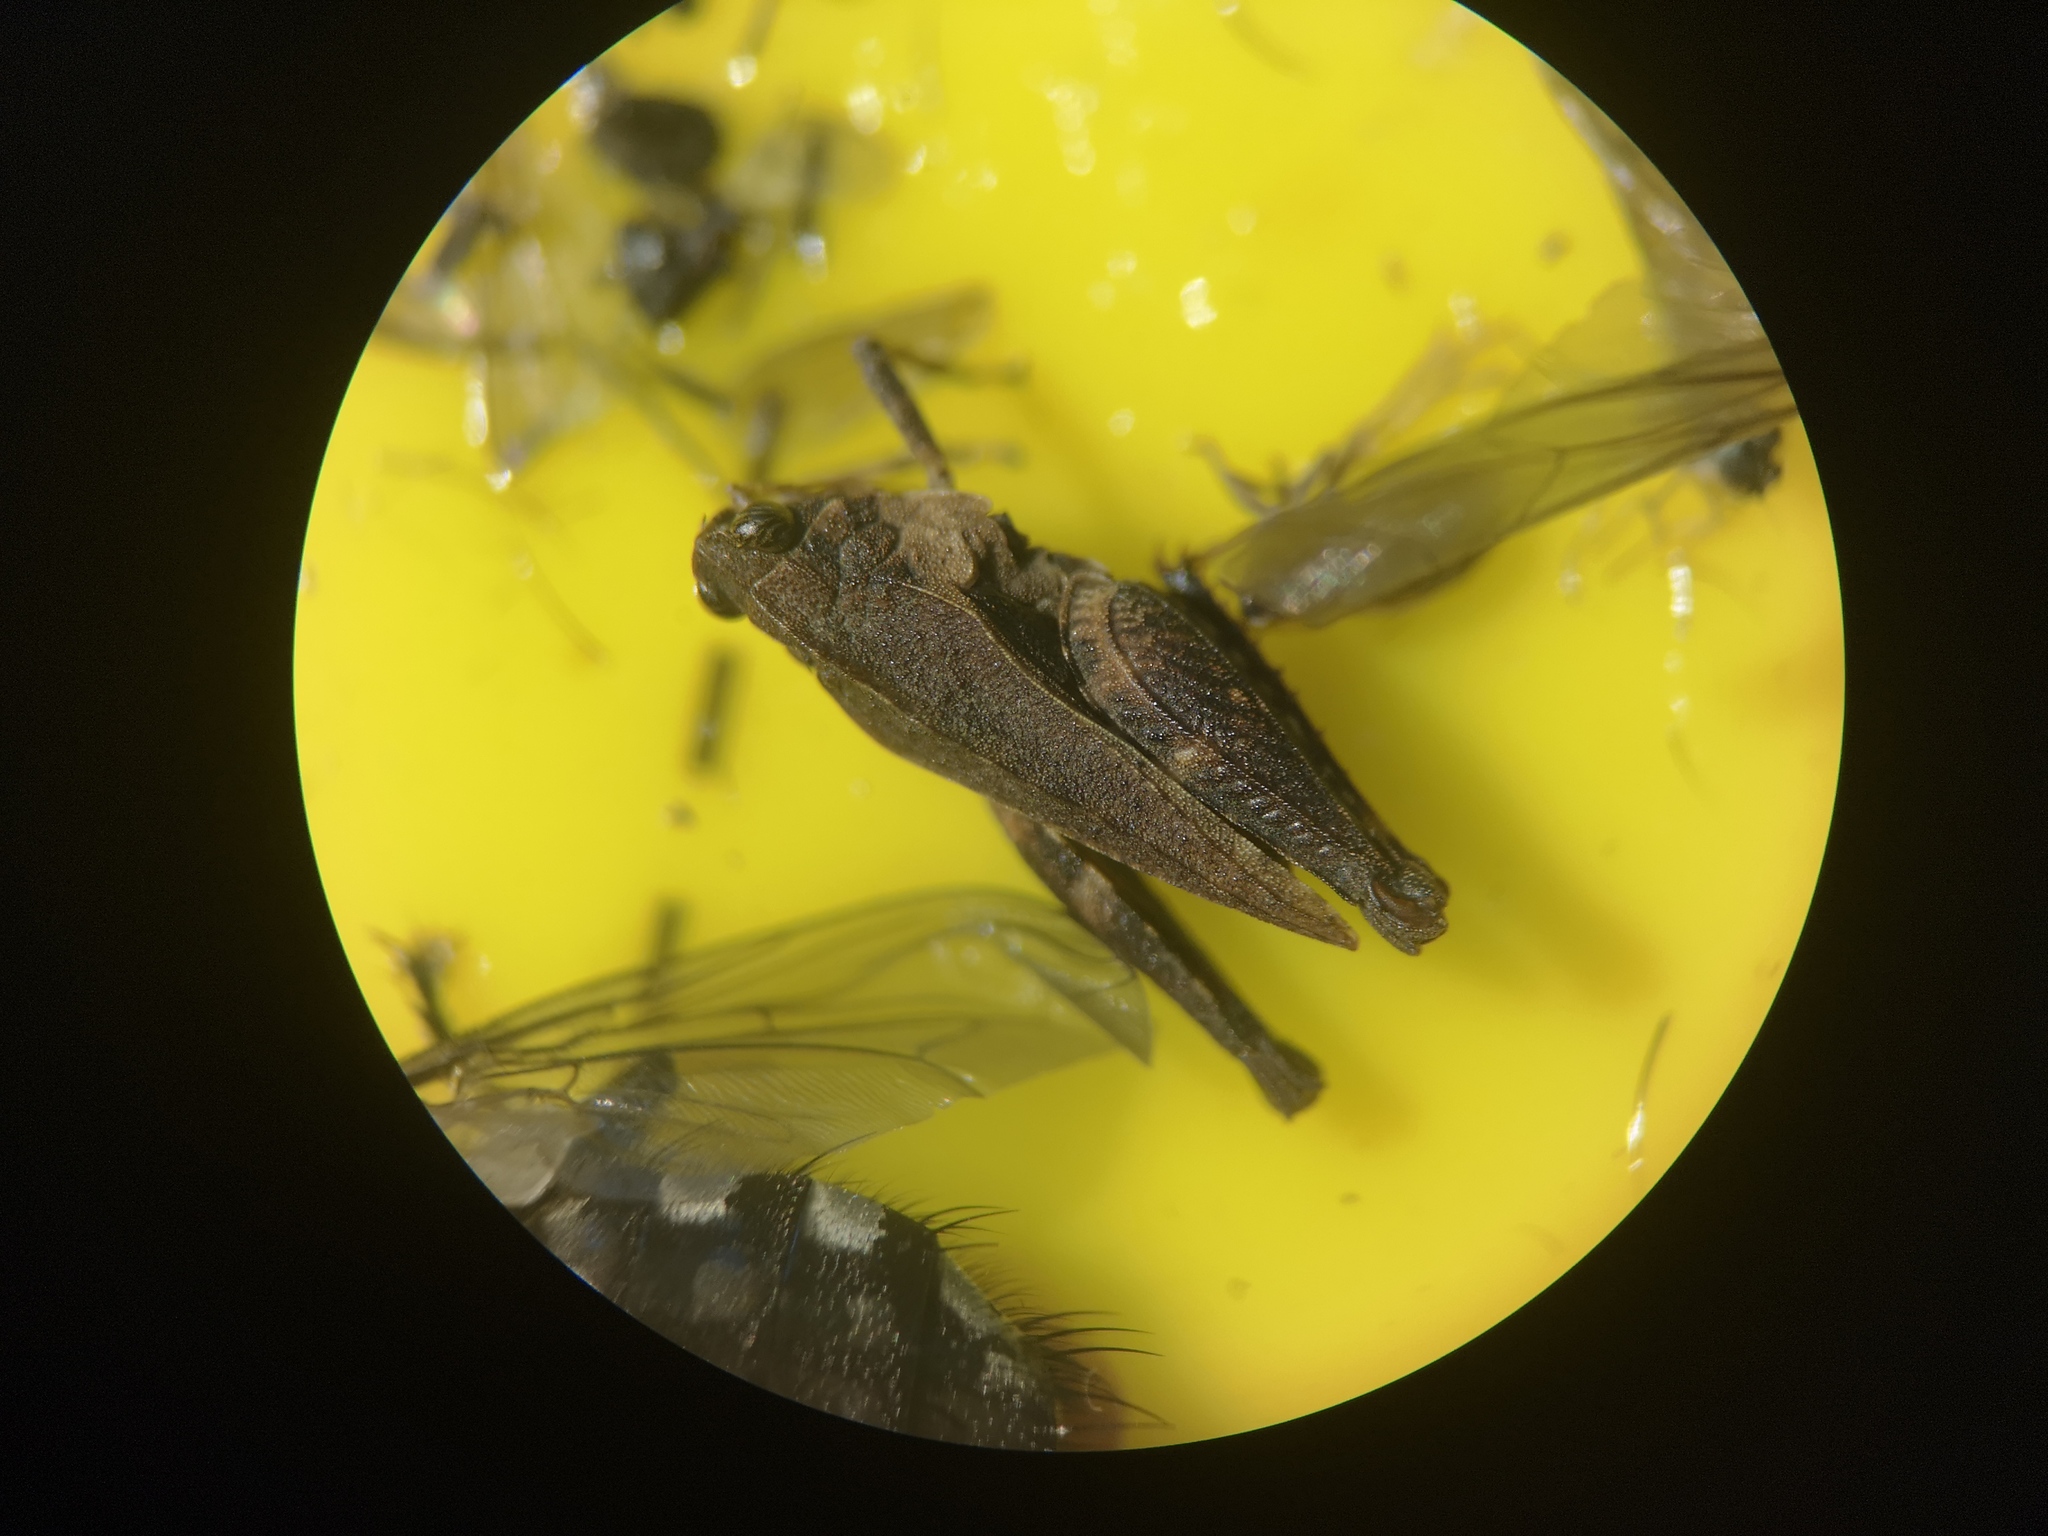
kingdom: Animalia
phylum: Arthropoda
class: Insecta
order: Orthoptera
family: Tetrigidae
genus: Tetrix
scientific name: Tetrix undulata
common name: Common groundhopper
